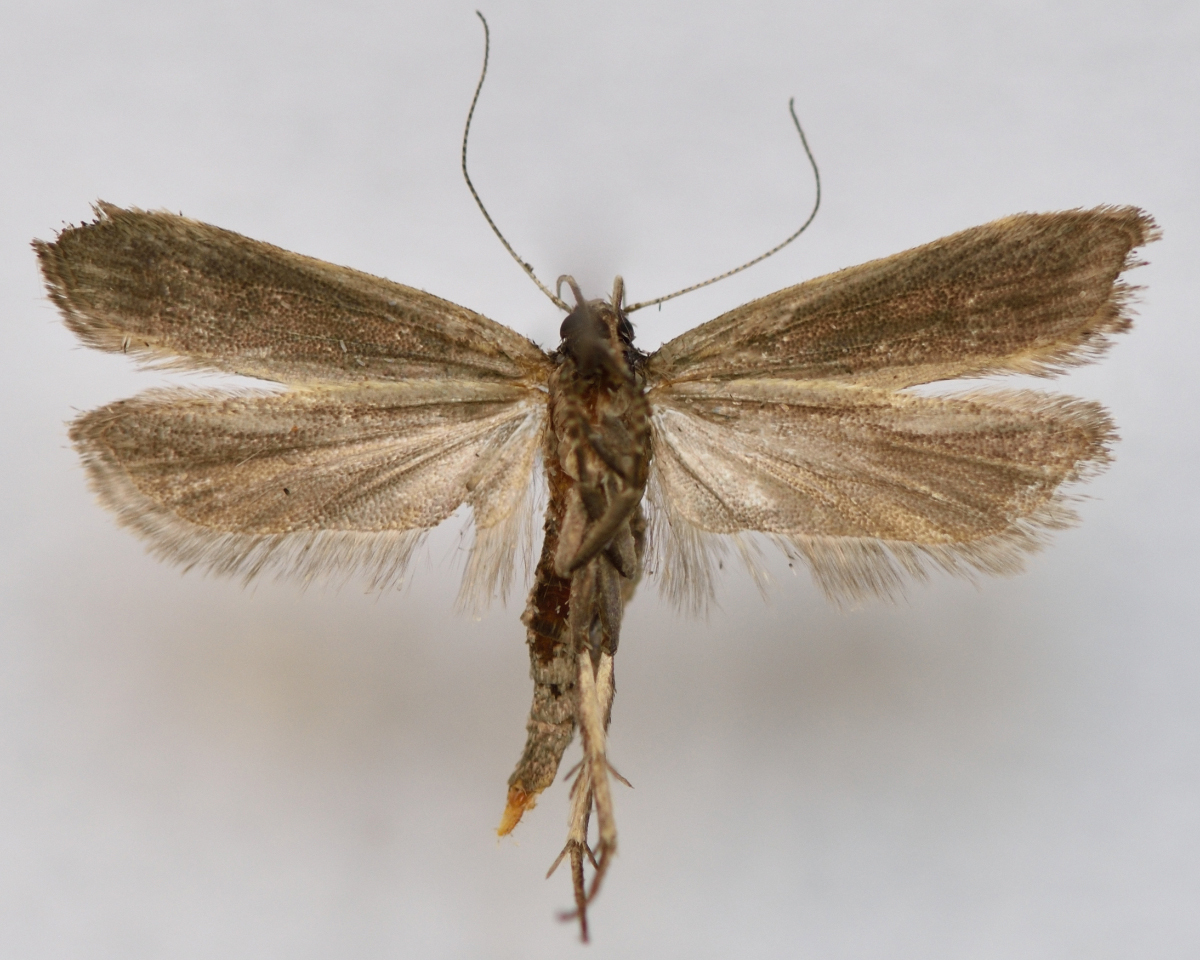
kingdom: Animalia
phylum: Arthropoda
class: Insecta
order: Lepidoptera
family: Gelechiidae
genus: Anacampsis
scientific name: Anacampsis blattariella
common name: Birch sober
